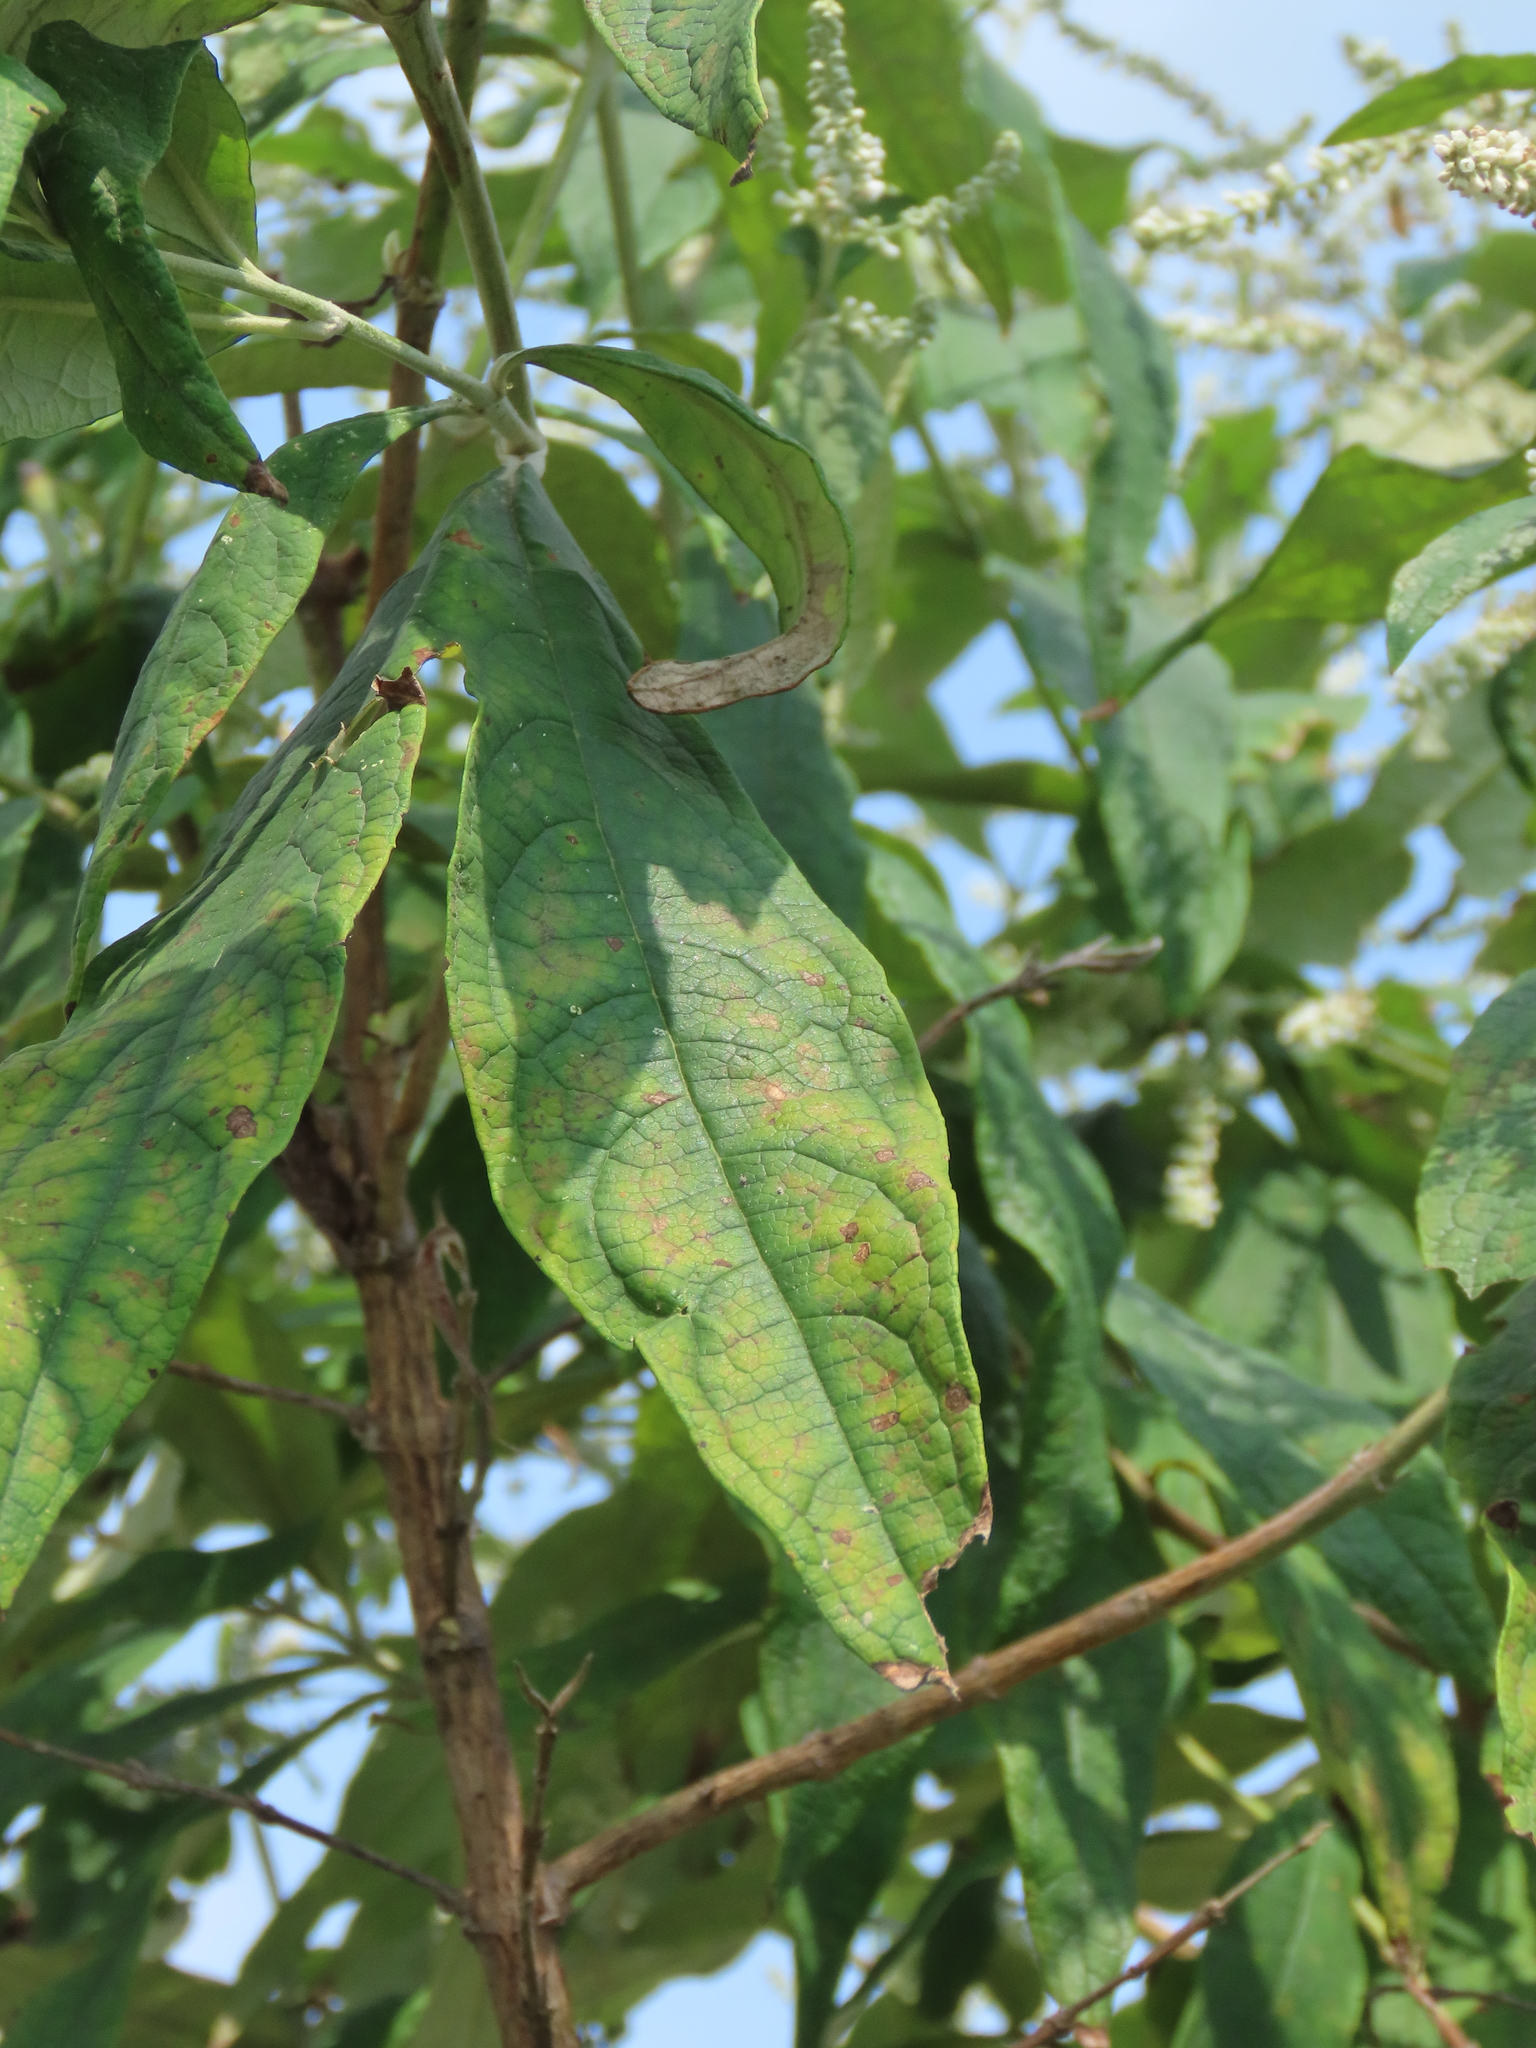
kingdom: Plantae
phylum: Tracheophyta
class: Magnoliopsida
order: Lamiales
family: Scrophulariaceae
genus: Buddleja
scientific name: Buddleja asiatica
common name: Dog tail
